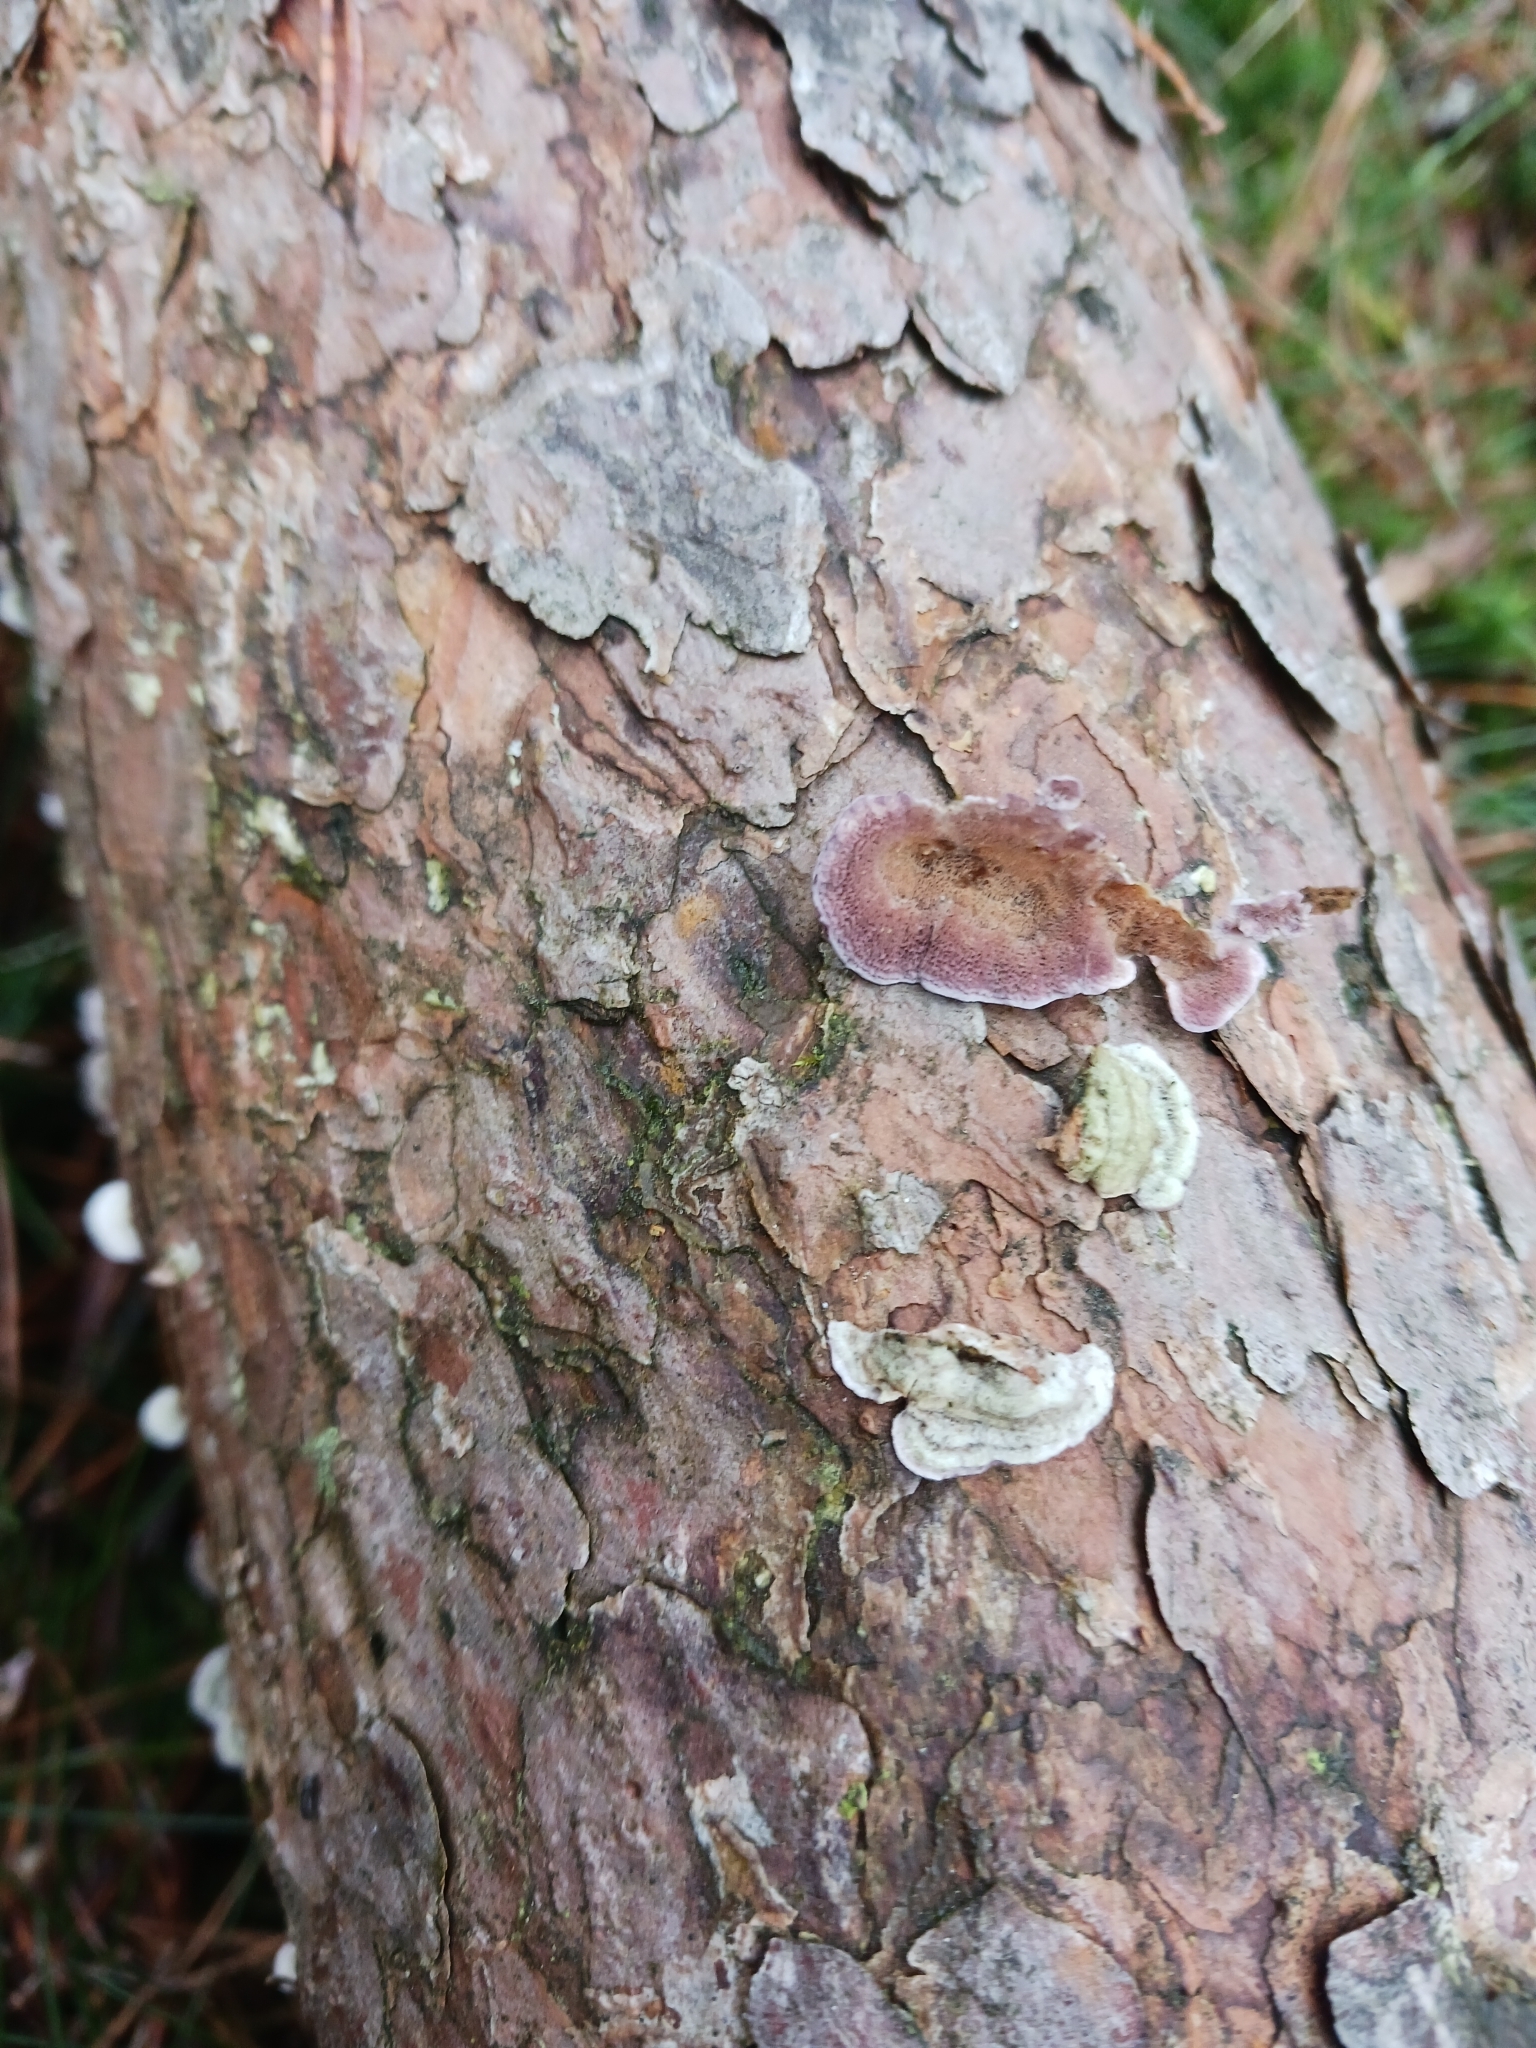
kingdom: Fungi
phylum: Basidiomycota
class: Agaricomycetes
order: Hymenochaetales
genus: Trichaptum
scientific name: Trichaptum abietinum
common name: Purplepore bracket
